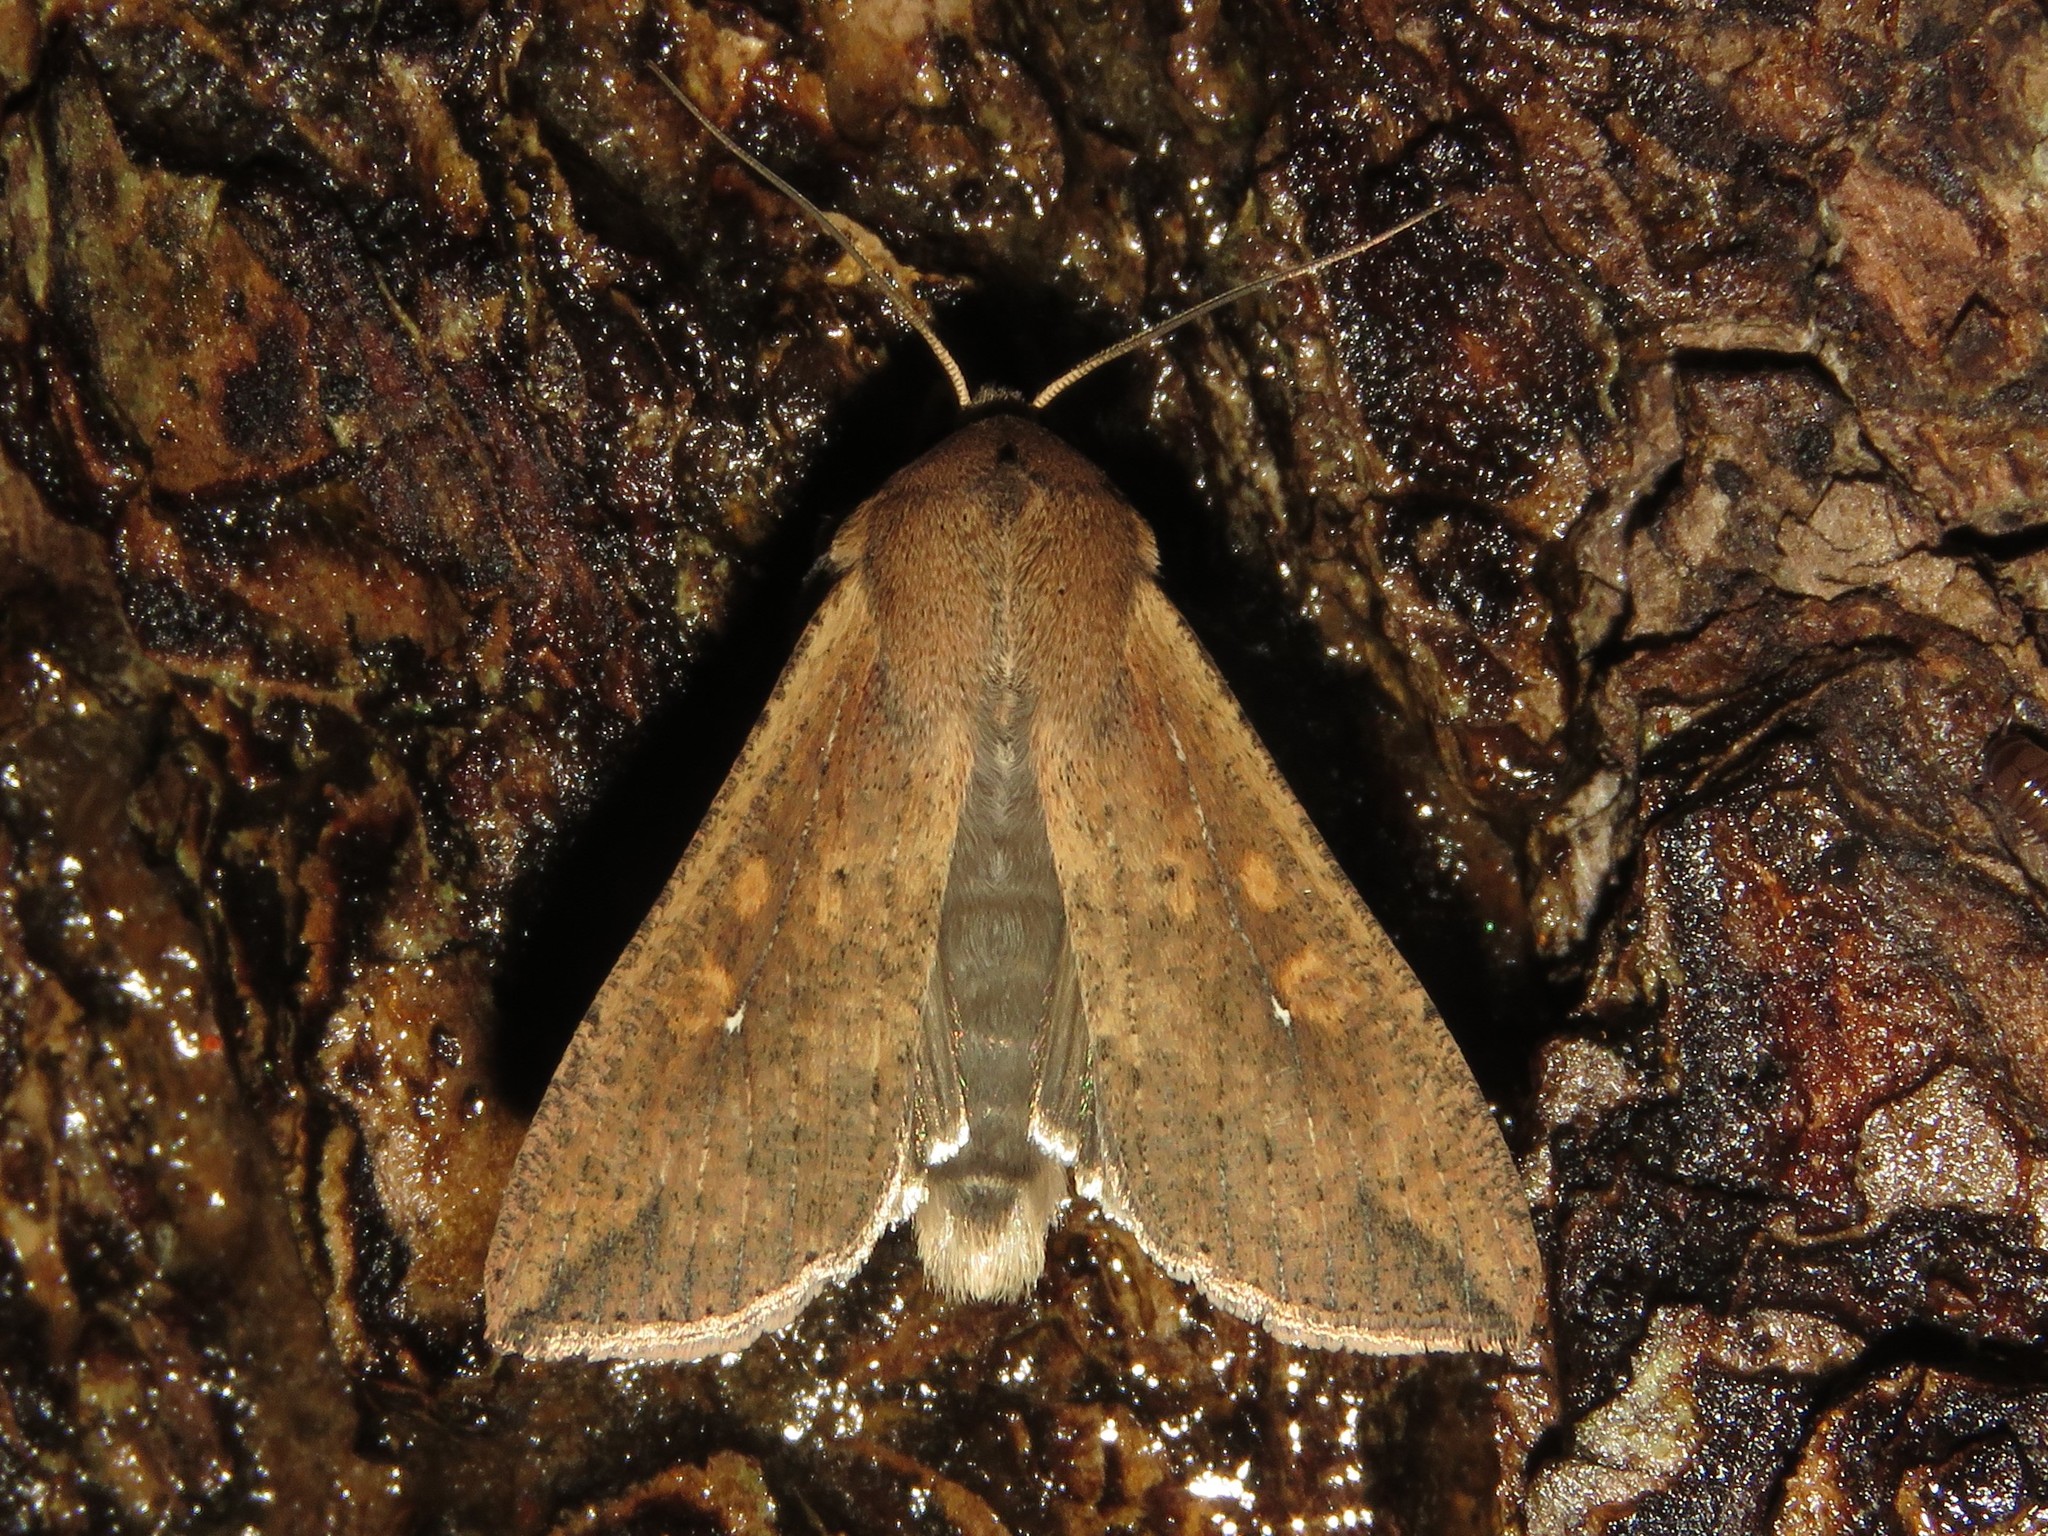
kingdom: Animalia
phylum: Arthropoda
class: Insecta
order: Lepidoptera
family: Noctuidae
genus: Mythimna
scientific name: Mythimna unipuncta
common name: White-speck
